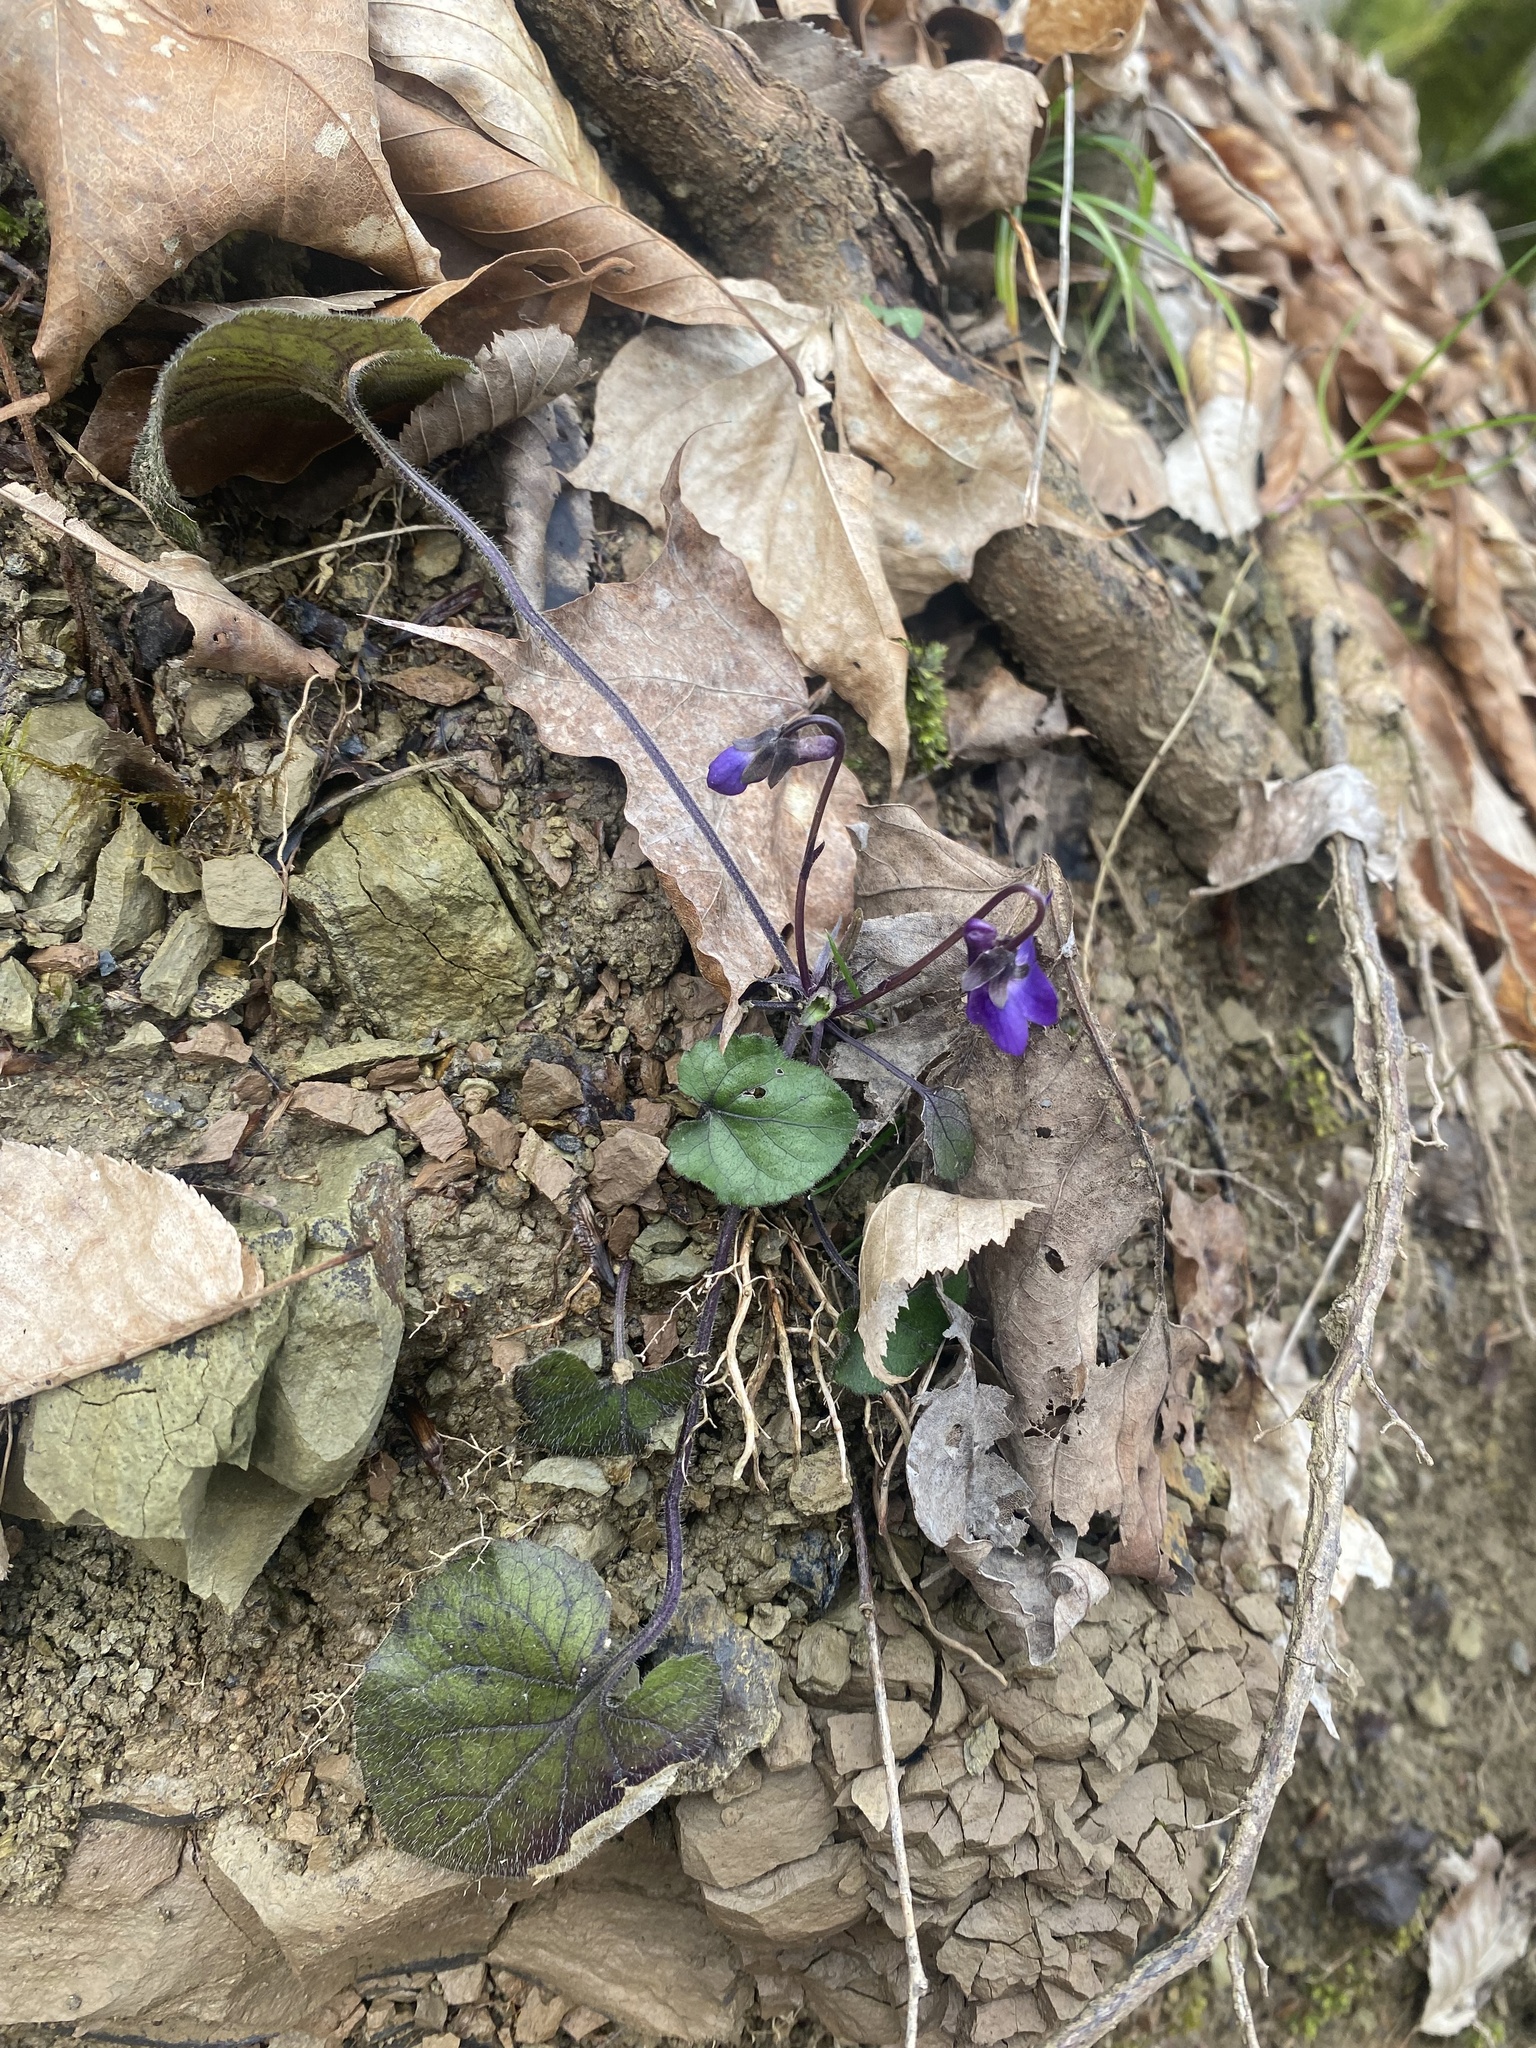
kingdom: Plantae
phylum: Tracheophyta
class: Magnoliopsida
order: Malpighiales
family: Violaceae
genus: Viola
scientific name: Viola alba
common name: White violet
